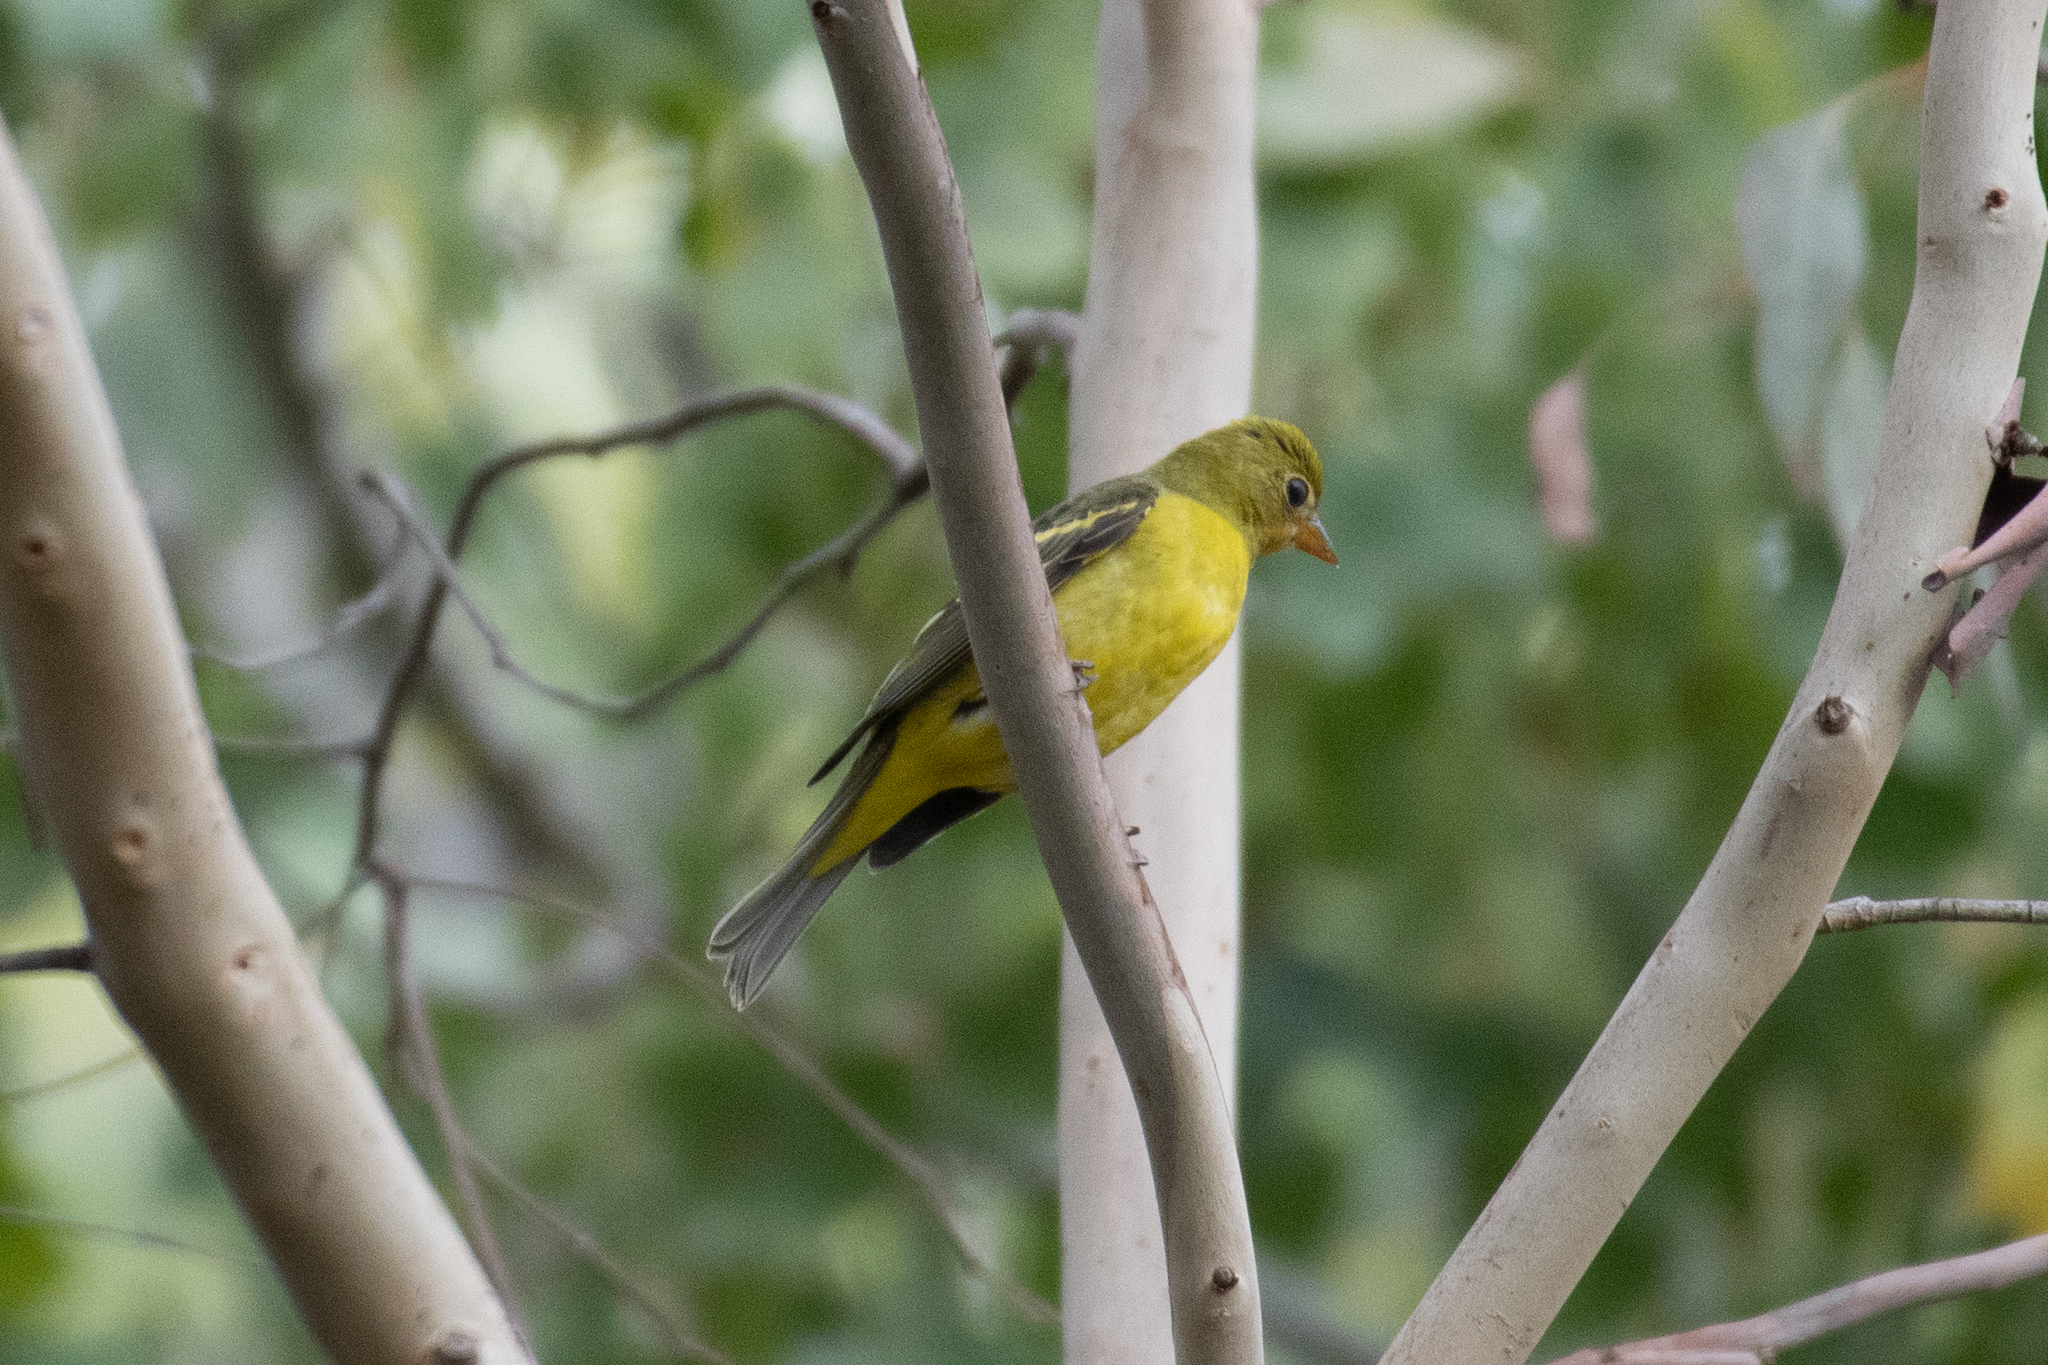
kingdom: Animalia
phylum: Chordata
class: Aves
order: Passeriformes
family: Cardinalidae
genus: Piranga
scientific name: Piranga ludoviciana
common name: Western tanager
